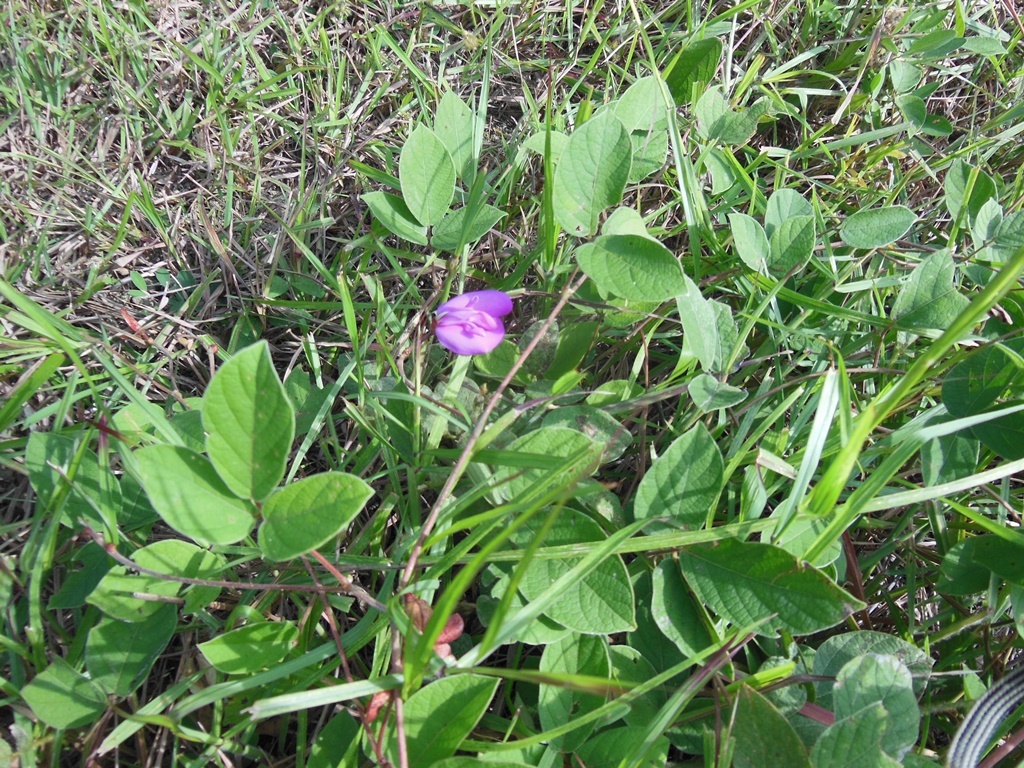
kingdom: Plantae
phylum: Tracheophyta
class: Magnoliopsida
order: Fabales
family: Fabaceae
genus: Vigna
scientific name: Vigna vexillata
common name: Zombi pea
